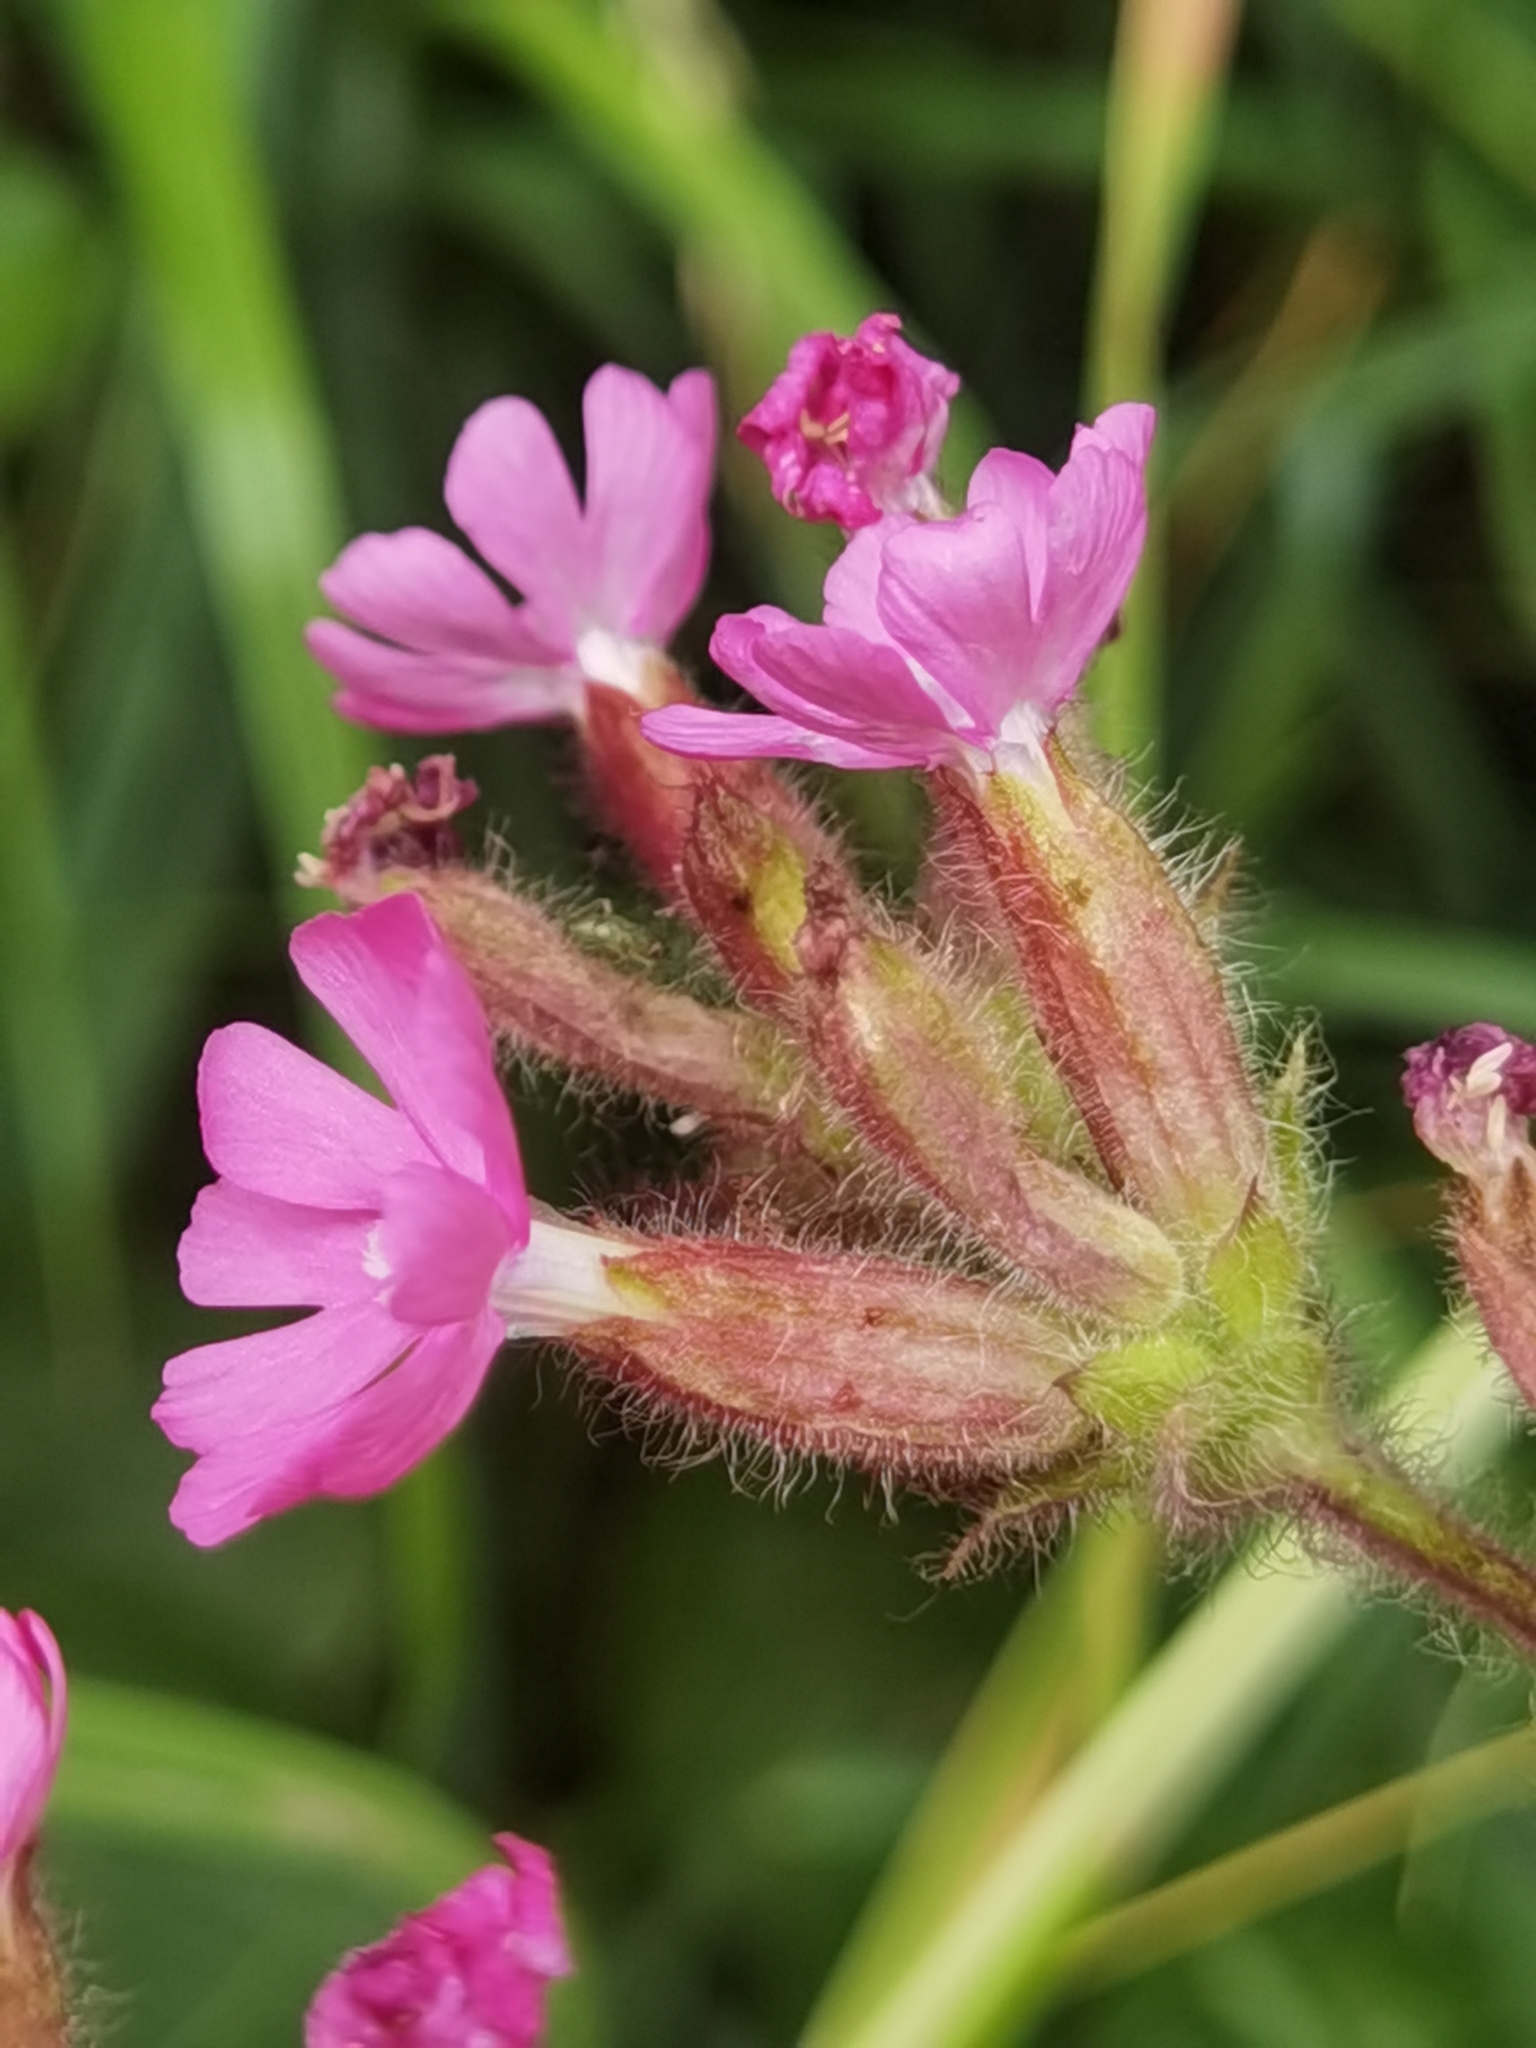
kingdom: Plantae
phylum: Tracheophyta
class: Magnoliopsida
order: Caryophyllales
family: Caryophyllaceae
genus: Silene
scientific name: Silene dioica
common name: Red campion
